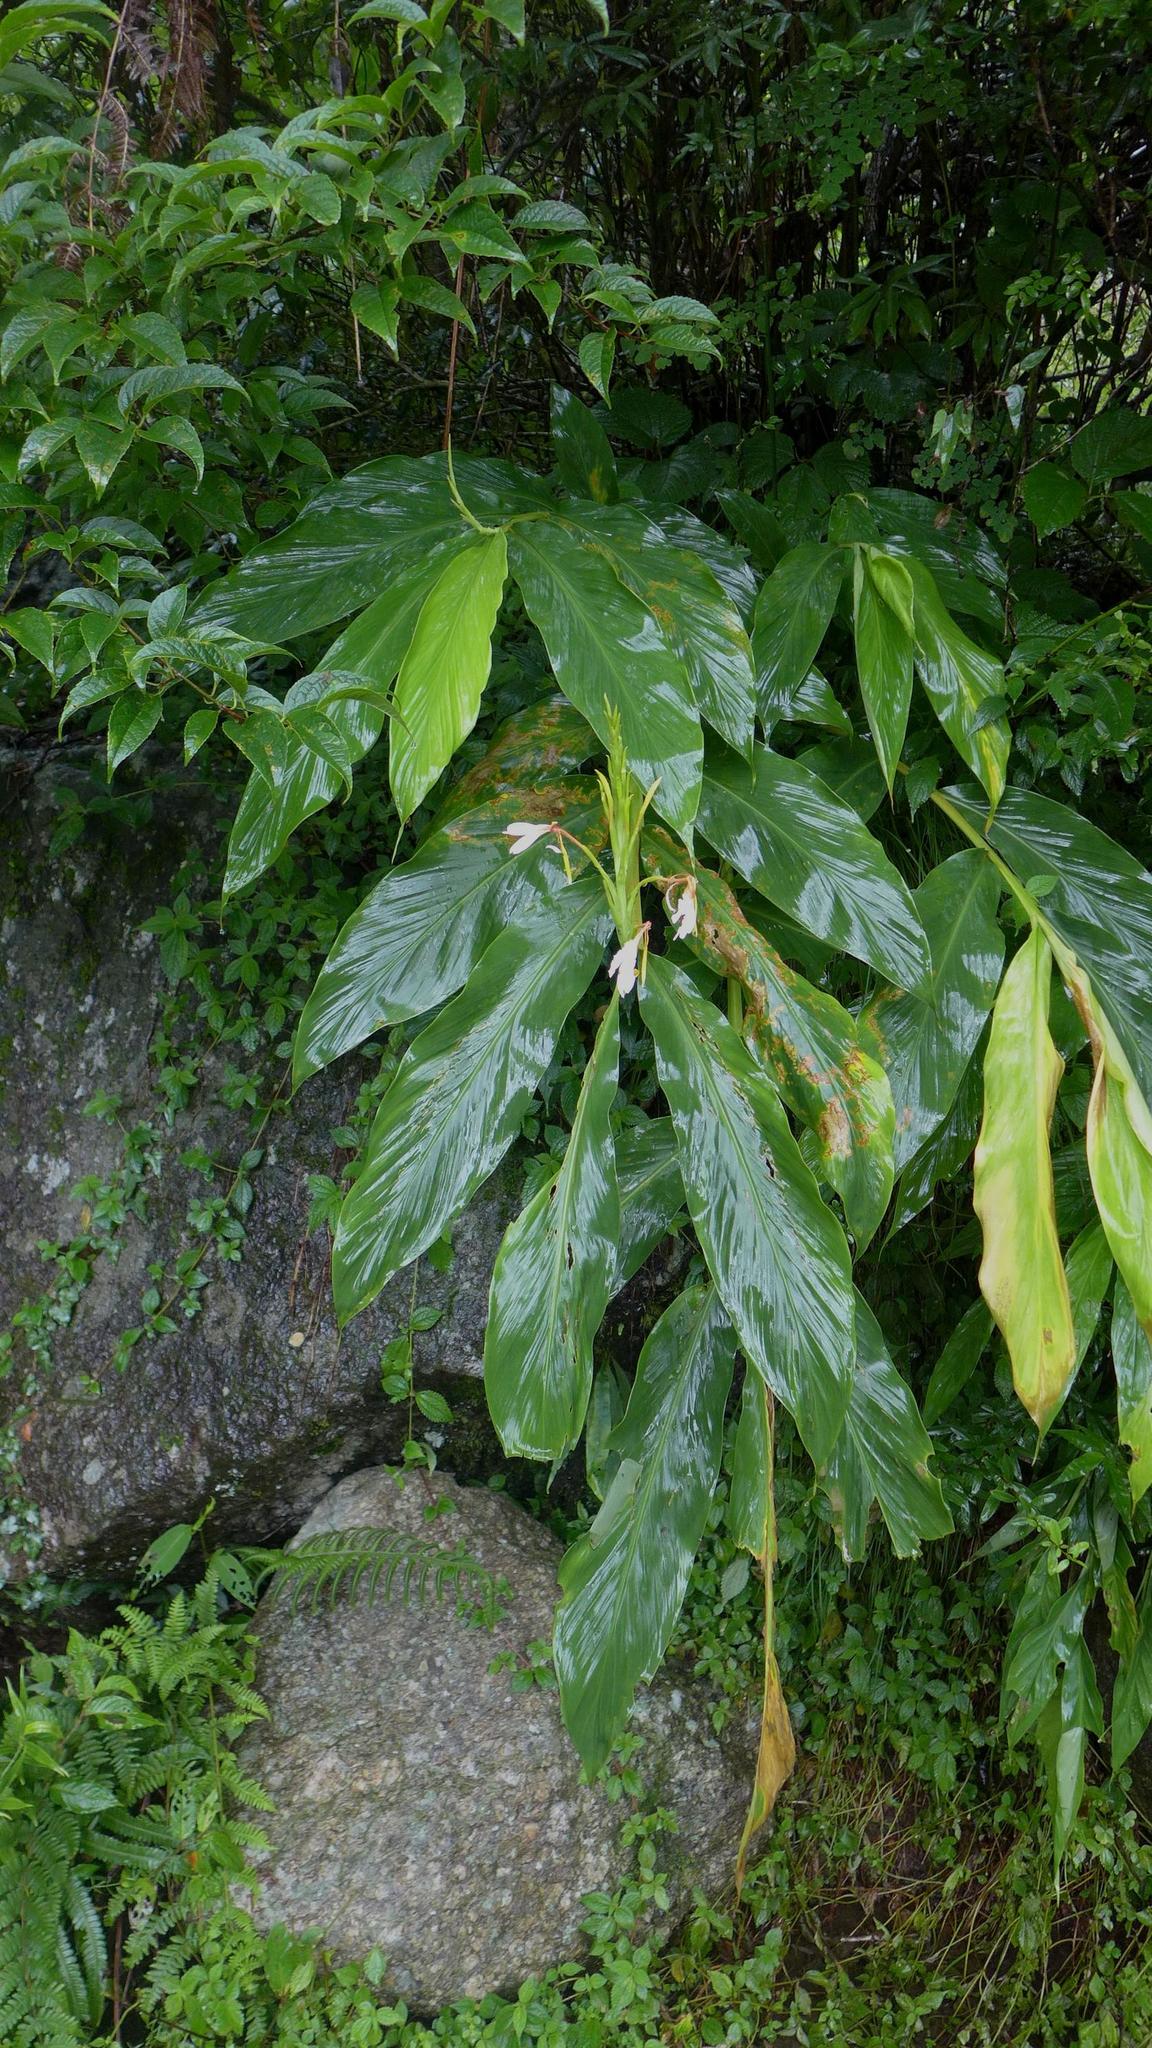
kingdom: Plantae
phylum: Tracheophyta
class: Liliopsida
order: Zingiberales
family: Zingiberaceae
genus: Hedychium
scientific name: Hedychium spicatum
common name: Spiked ginger-lily
